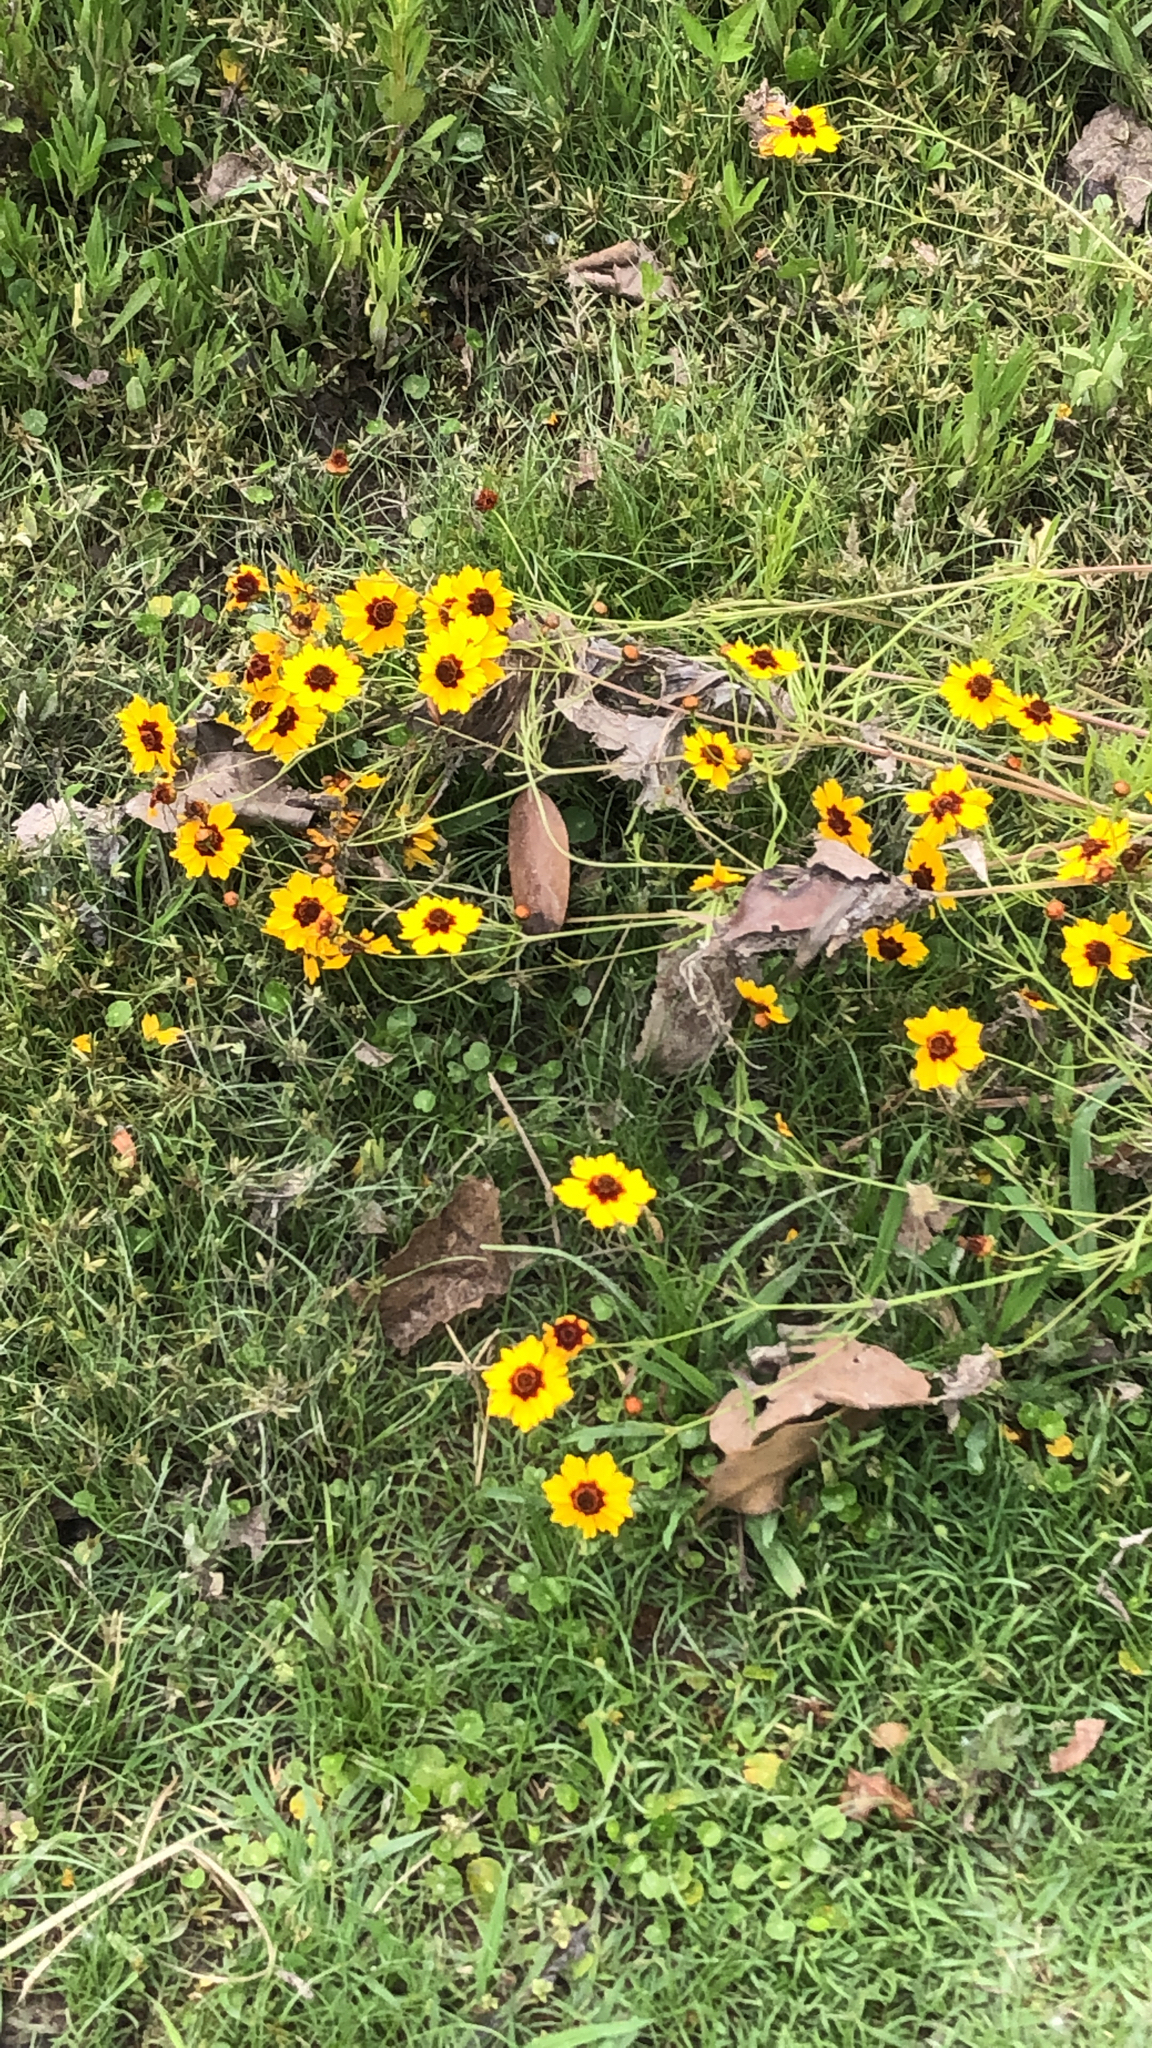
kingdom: Plantae
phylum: Tracheophyta
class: Magnoliopsida
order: Asterales
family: Asteraceae
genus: Coreopsis
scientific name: Coreopsis tinctoria
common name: Garden tickseed
